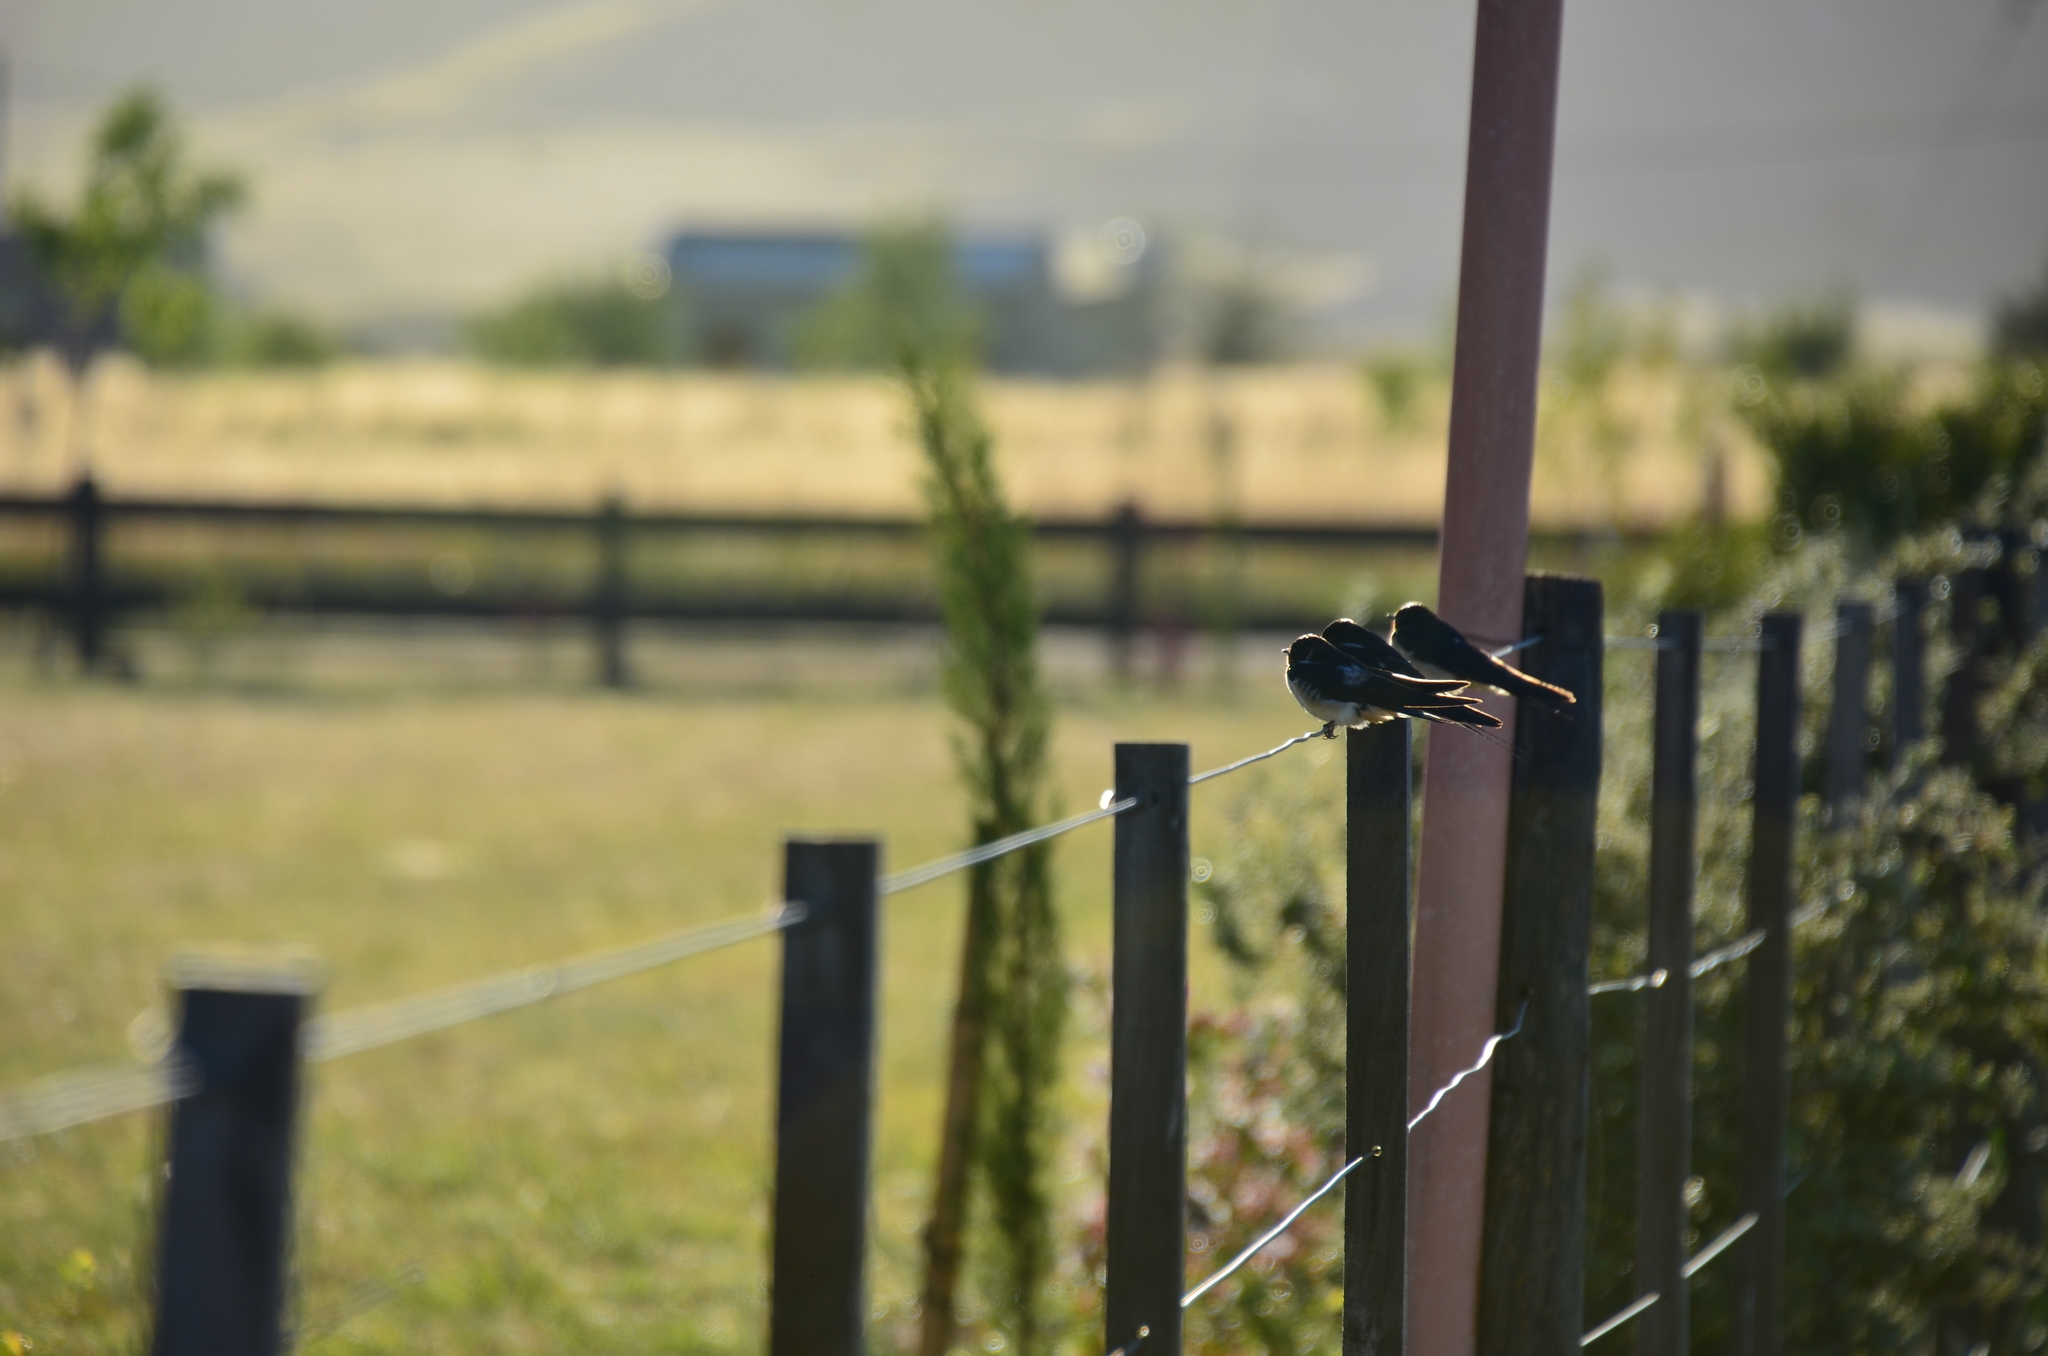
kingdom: Animalia
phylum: Chordata
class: Aves
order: Passeriformes
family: Hirundinidae
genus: Hirundo
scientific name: Hirundo rustica
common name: Barn swallow
